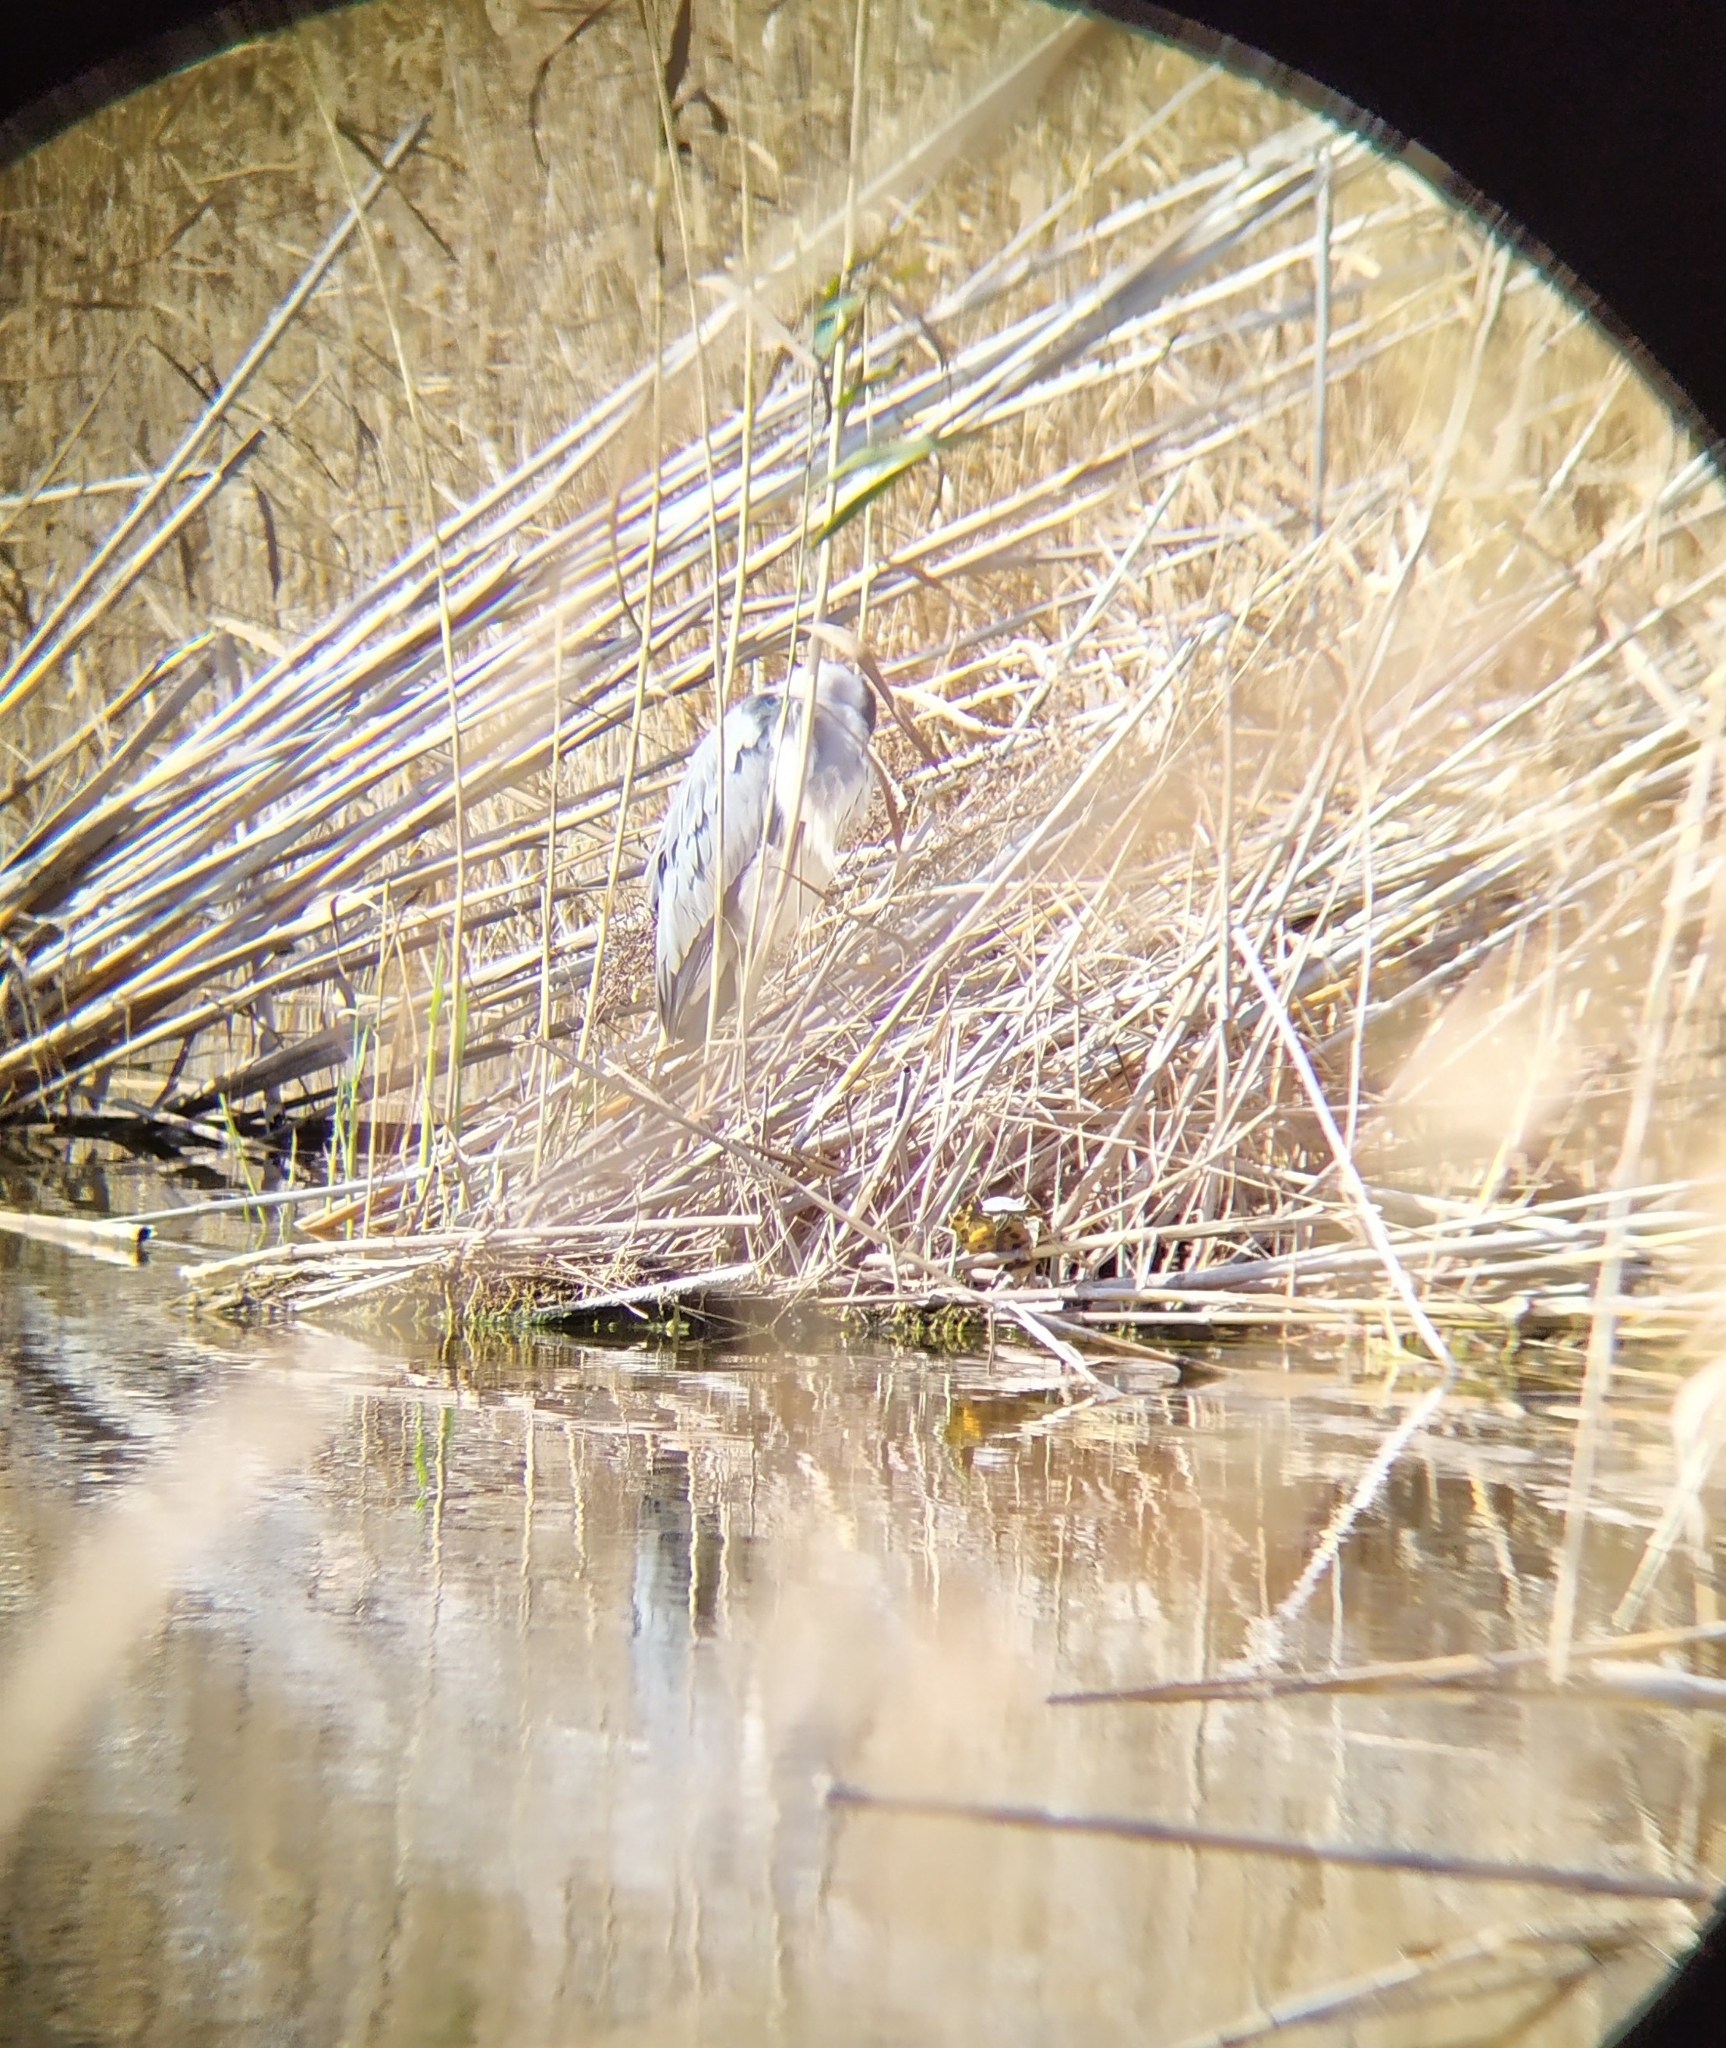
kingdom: Animalia
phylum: Chordata
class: Aves
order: Pelecaniformes
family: Ardeidae
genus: Ardea
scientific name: Ardea cinerea
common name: Grey heron
